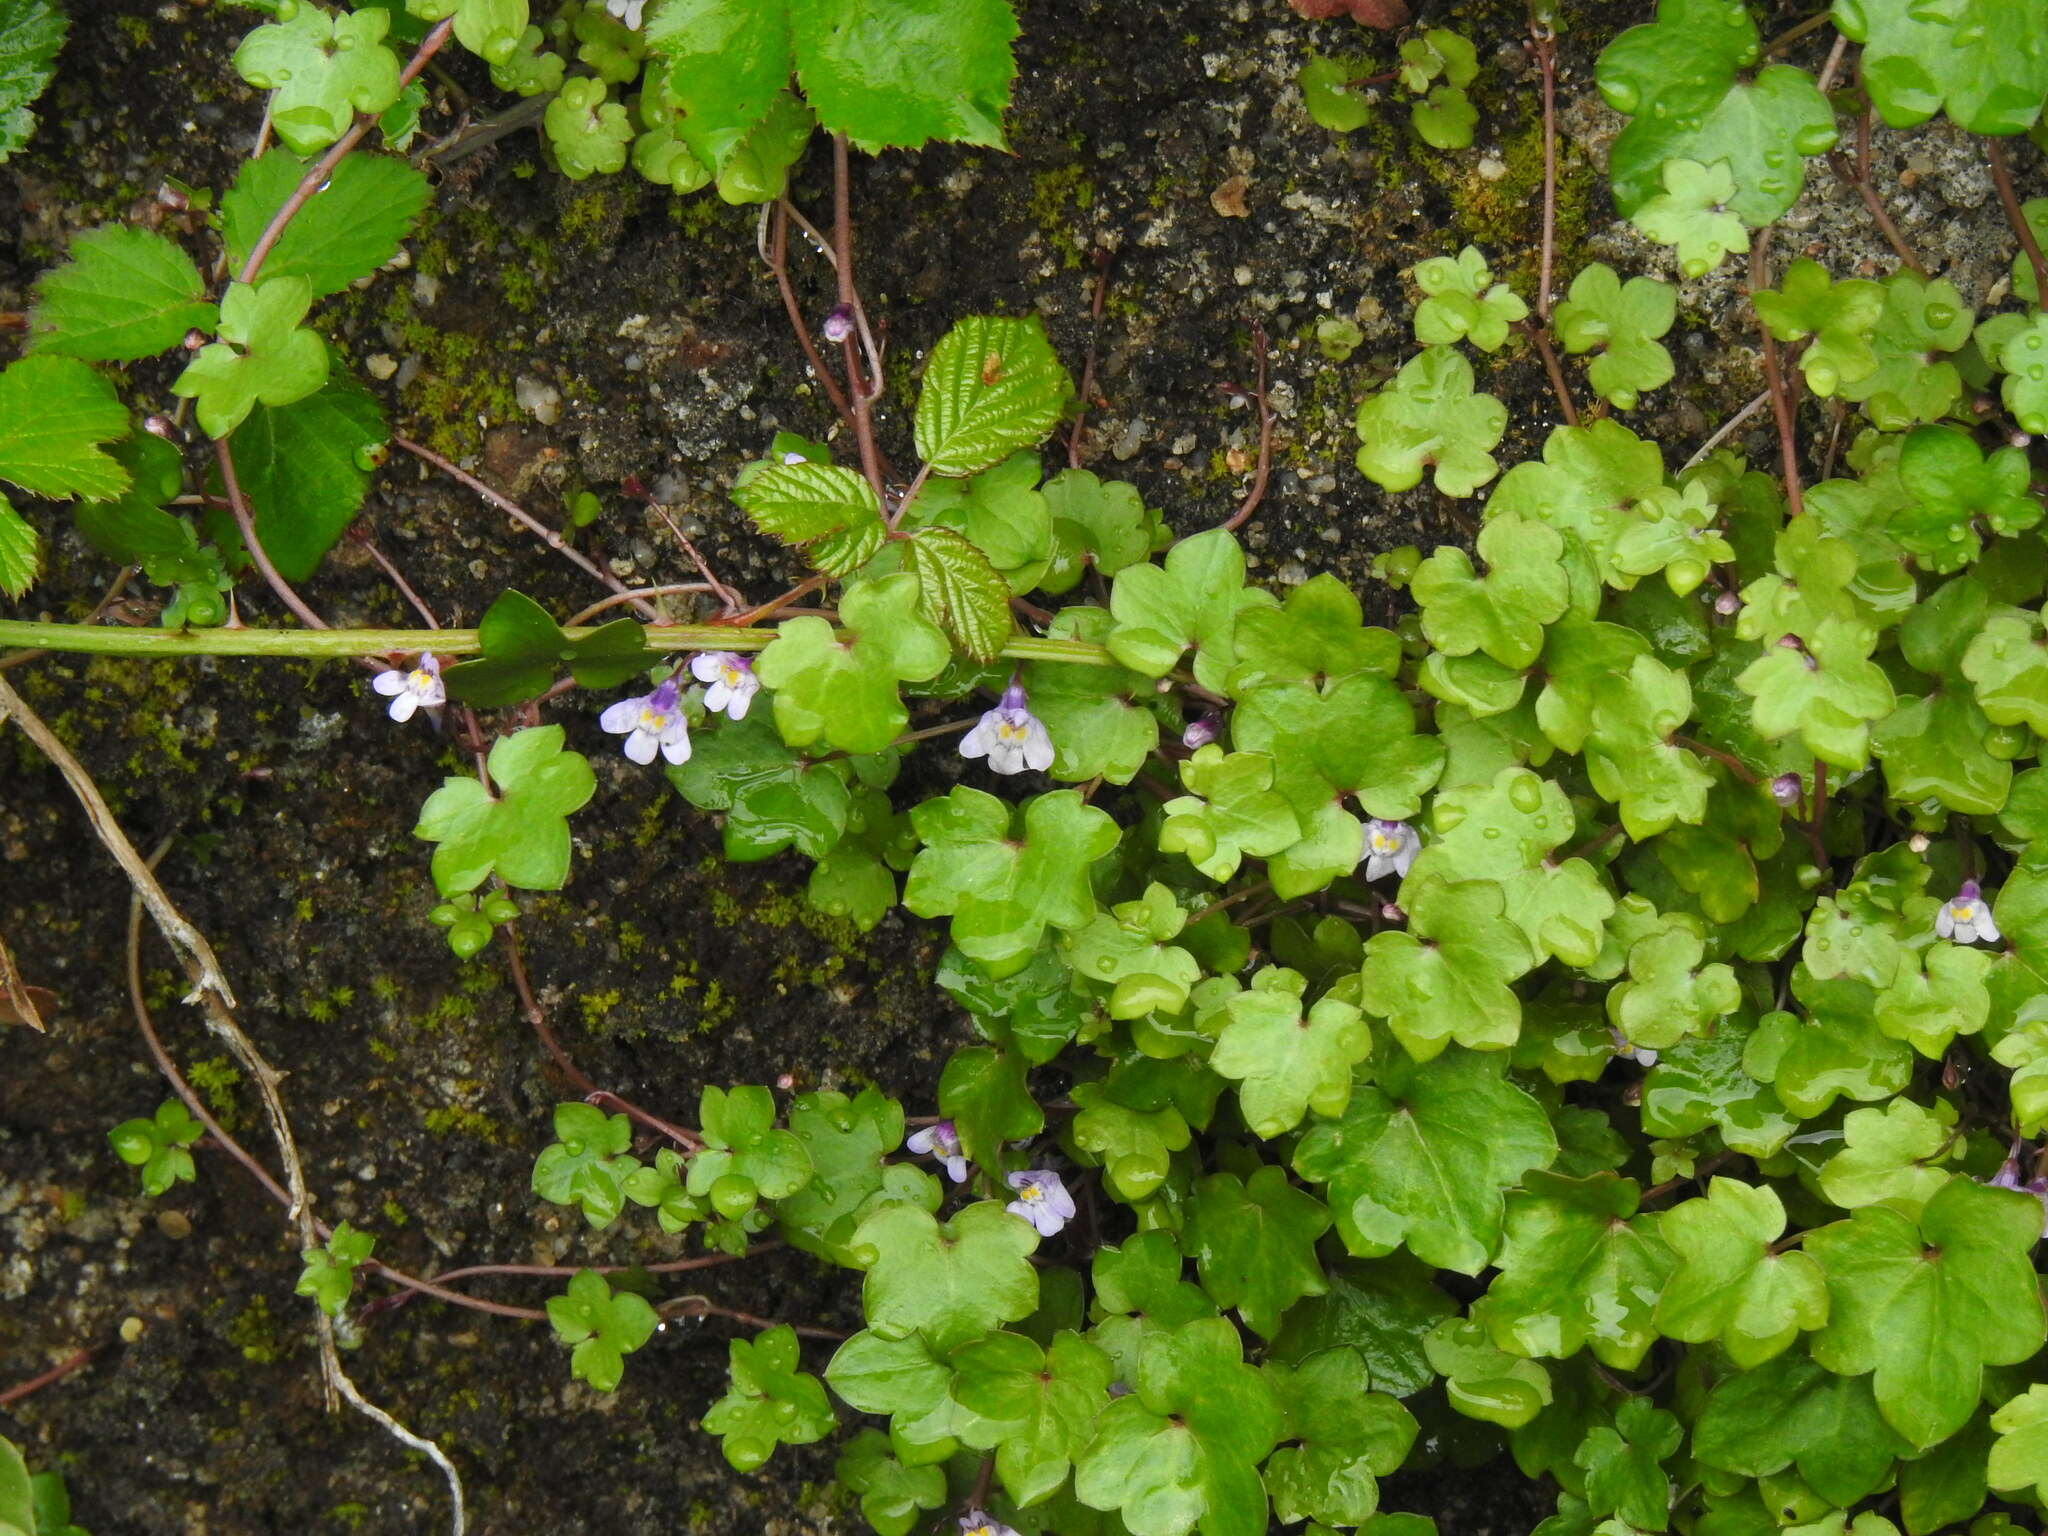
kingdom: Plantae
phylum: Tracheophyta
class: Magnoliopsida
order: Lamiales
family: Plantaginaceae
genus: Cymbalaria
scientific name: Cymbalaria muralis
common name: Ivy-leaved toadflax
